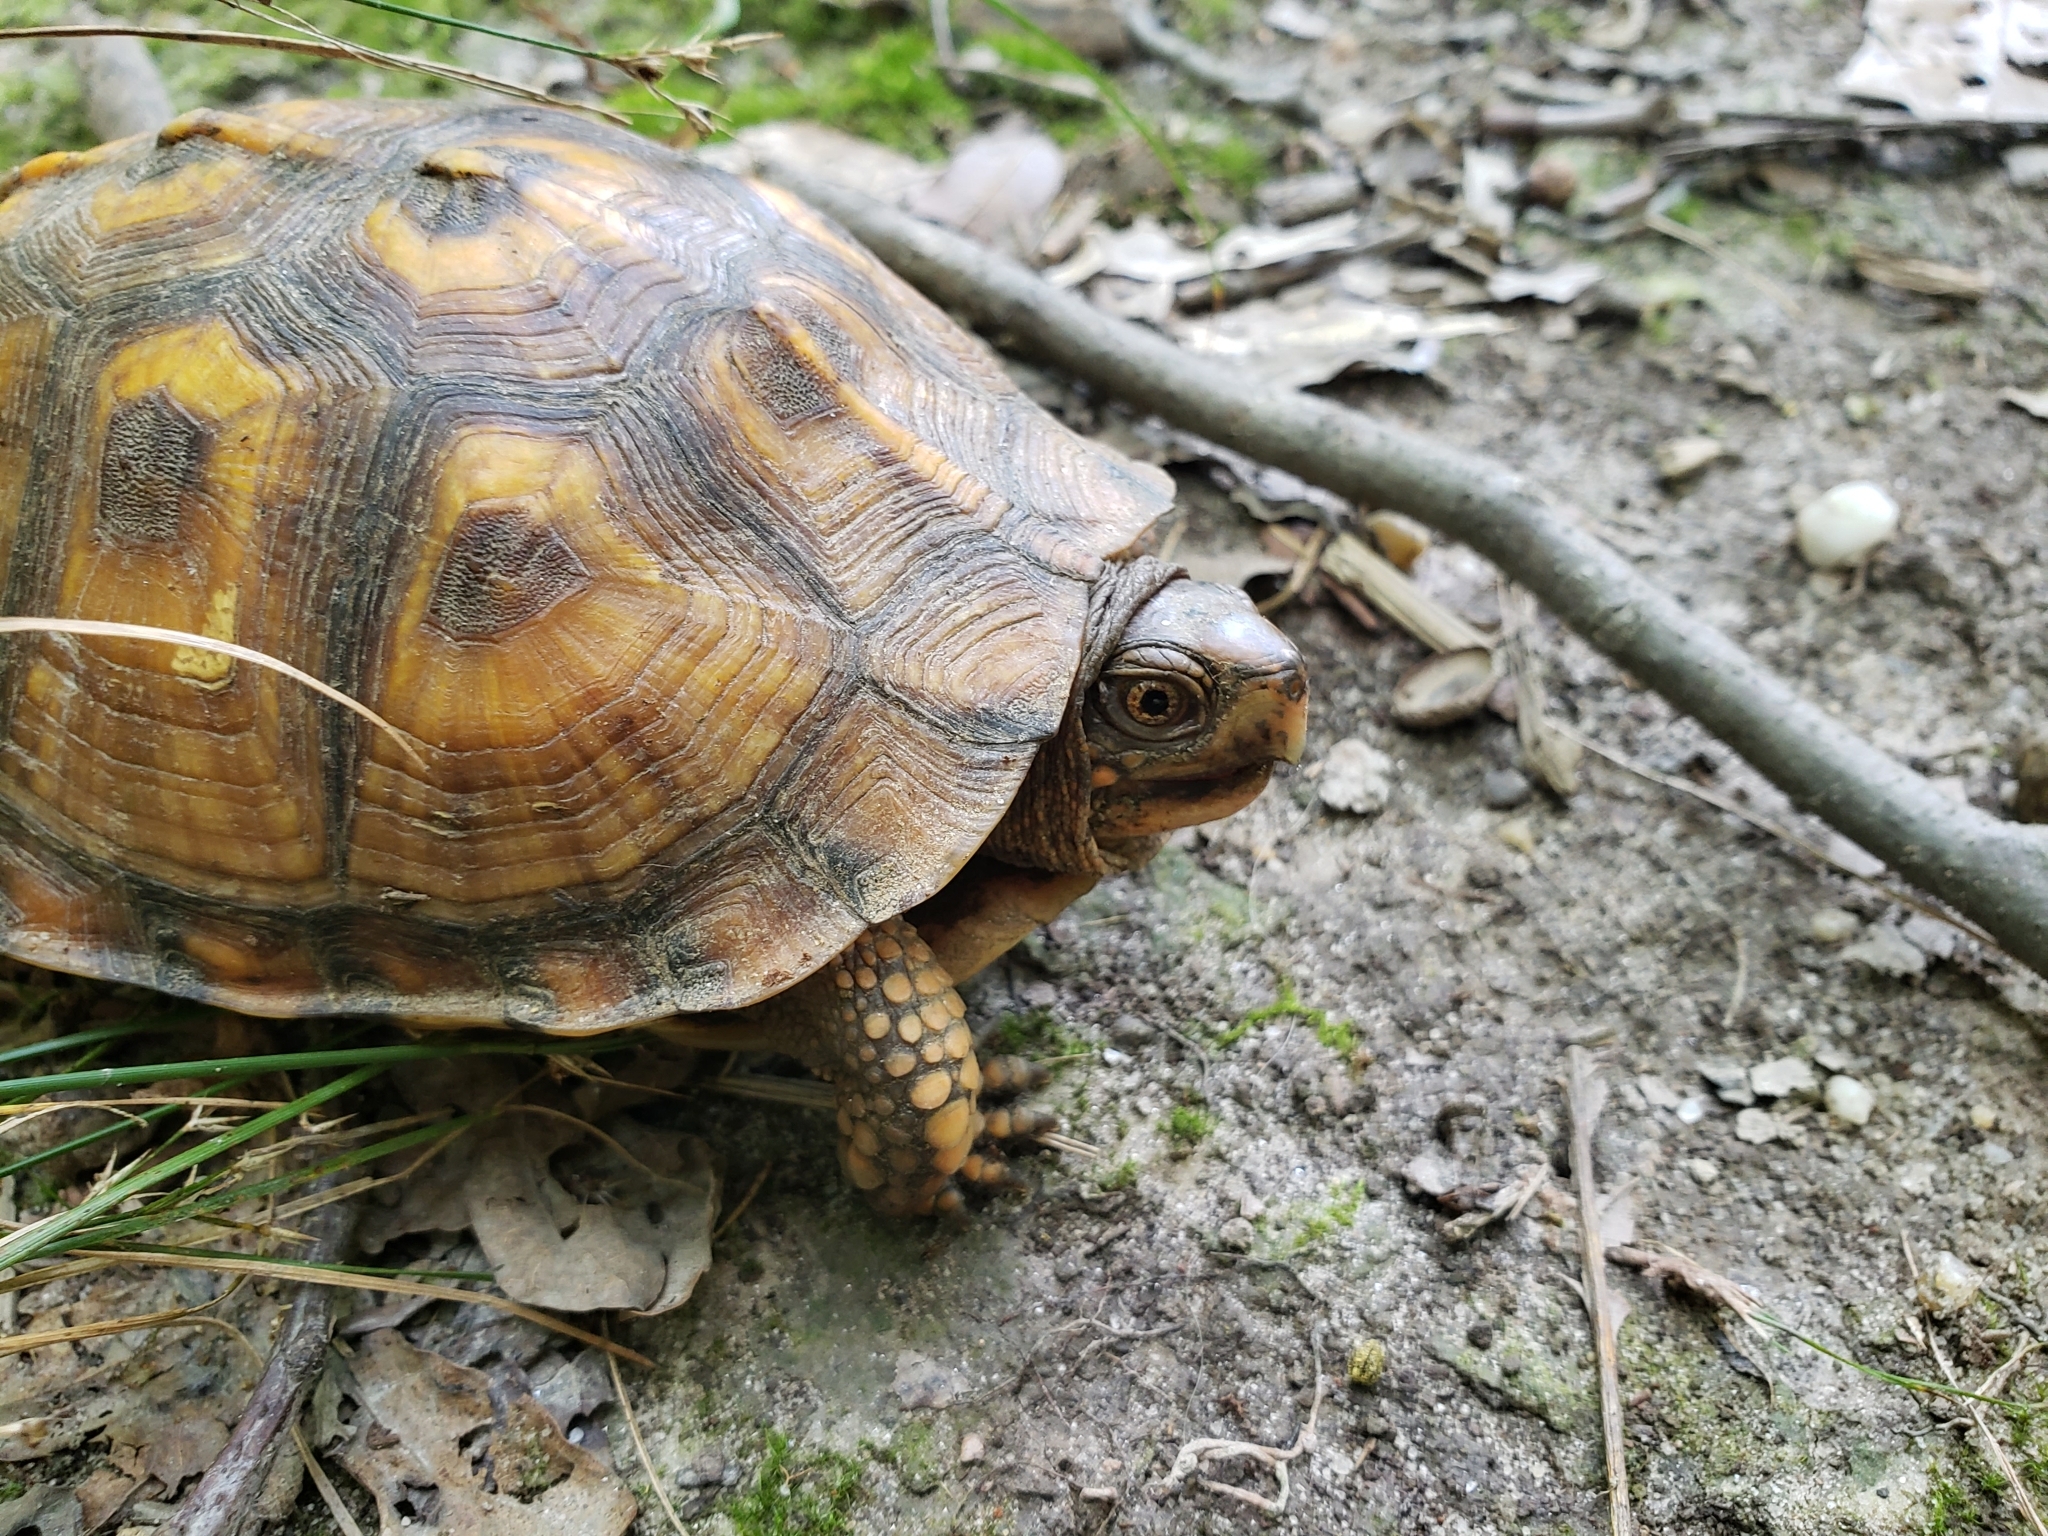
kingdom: Animalia
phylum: Chordata
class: Testudines
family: Emydidae
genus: Terrapene
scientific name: Terrapene carolina
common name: Common box turtle
